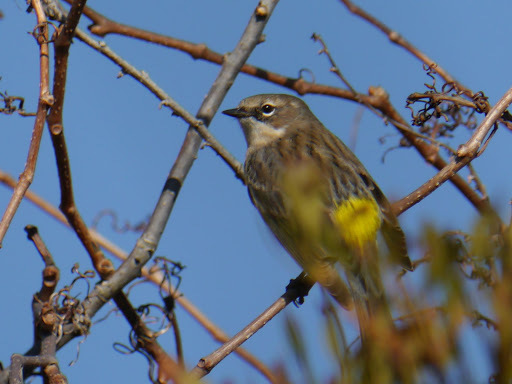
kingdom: Animalia
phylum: Chordata
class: Aves
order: Passeriformes
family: Parulidae
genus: Setophaga
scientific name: Setophaga coronata
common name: Myrtle warbler
